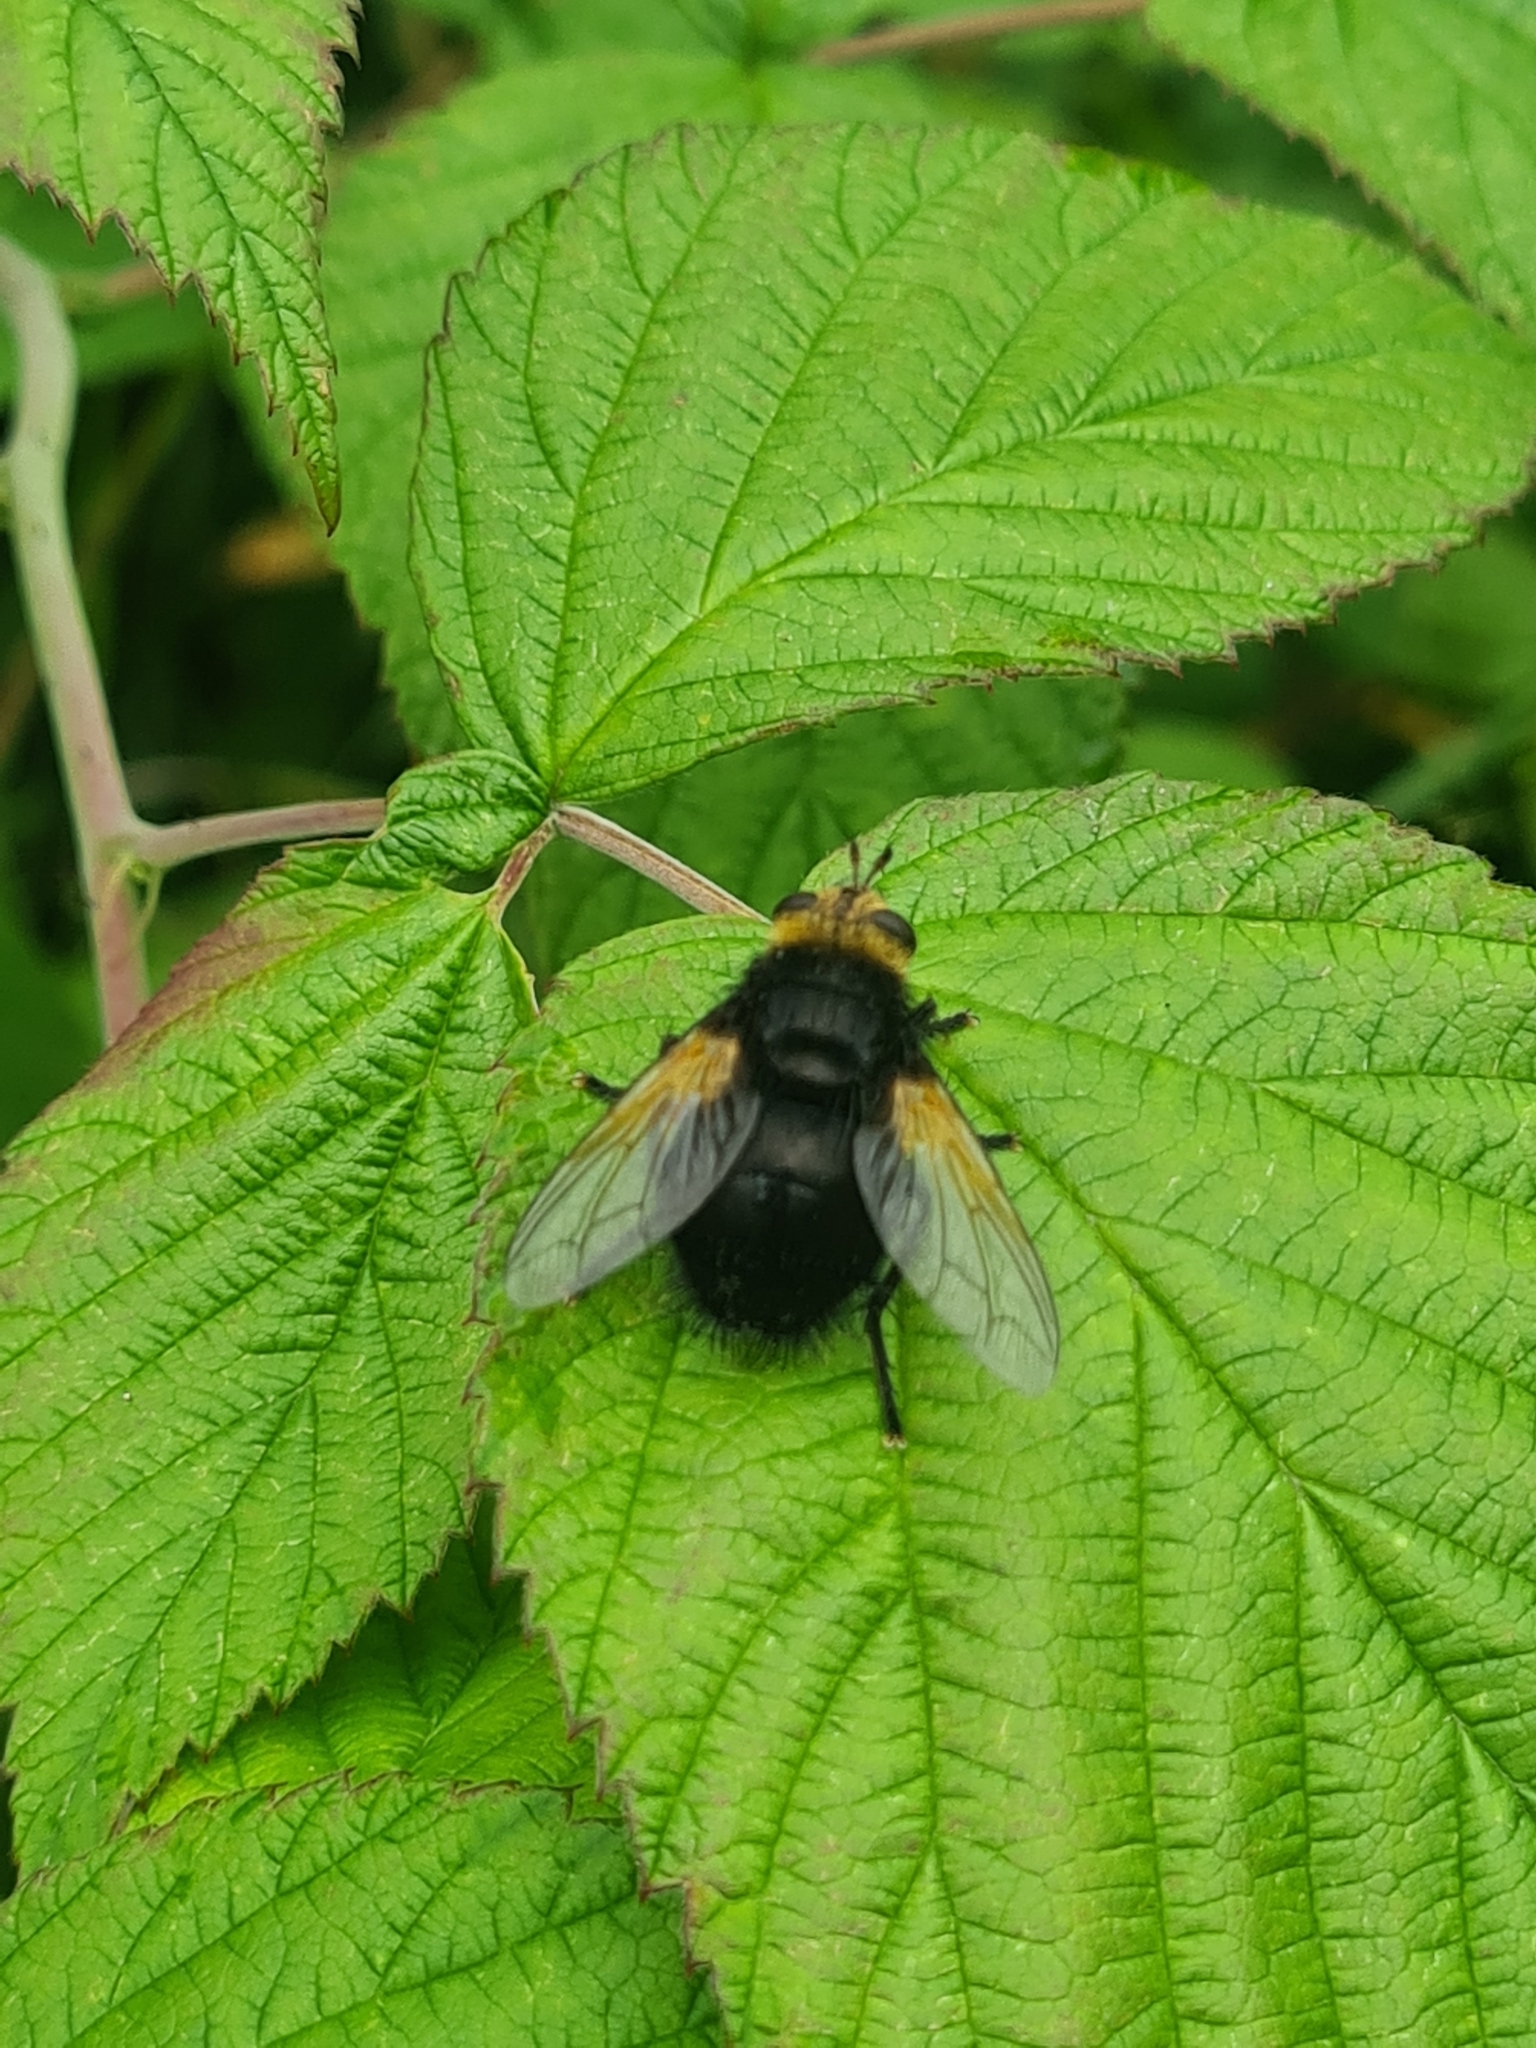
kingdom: Animalia
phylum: Arthropoda
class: Insecta
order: Diptera
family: Tachinidae
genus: Tachina
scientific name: Tachina grossa
